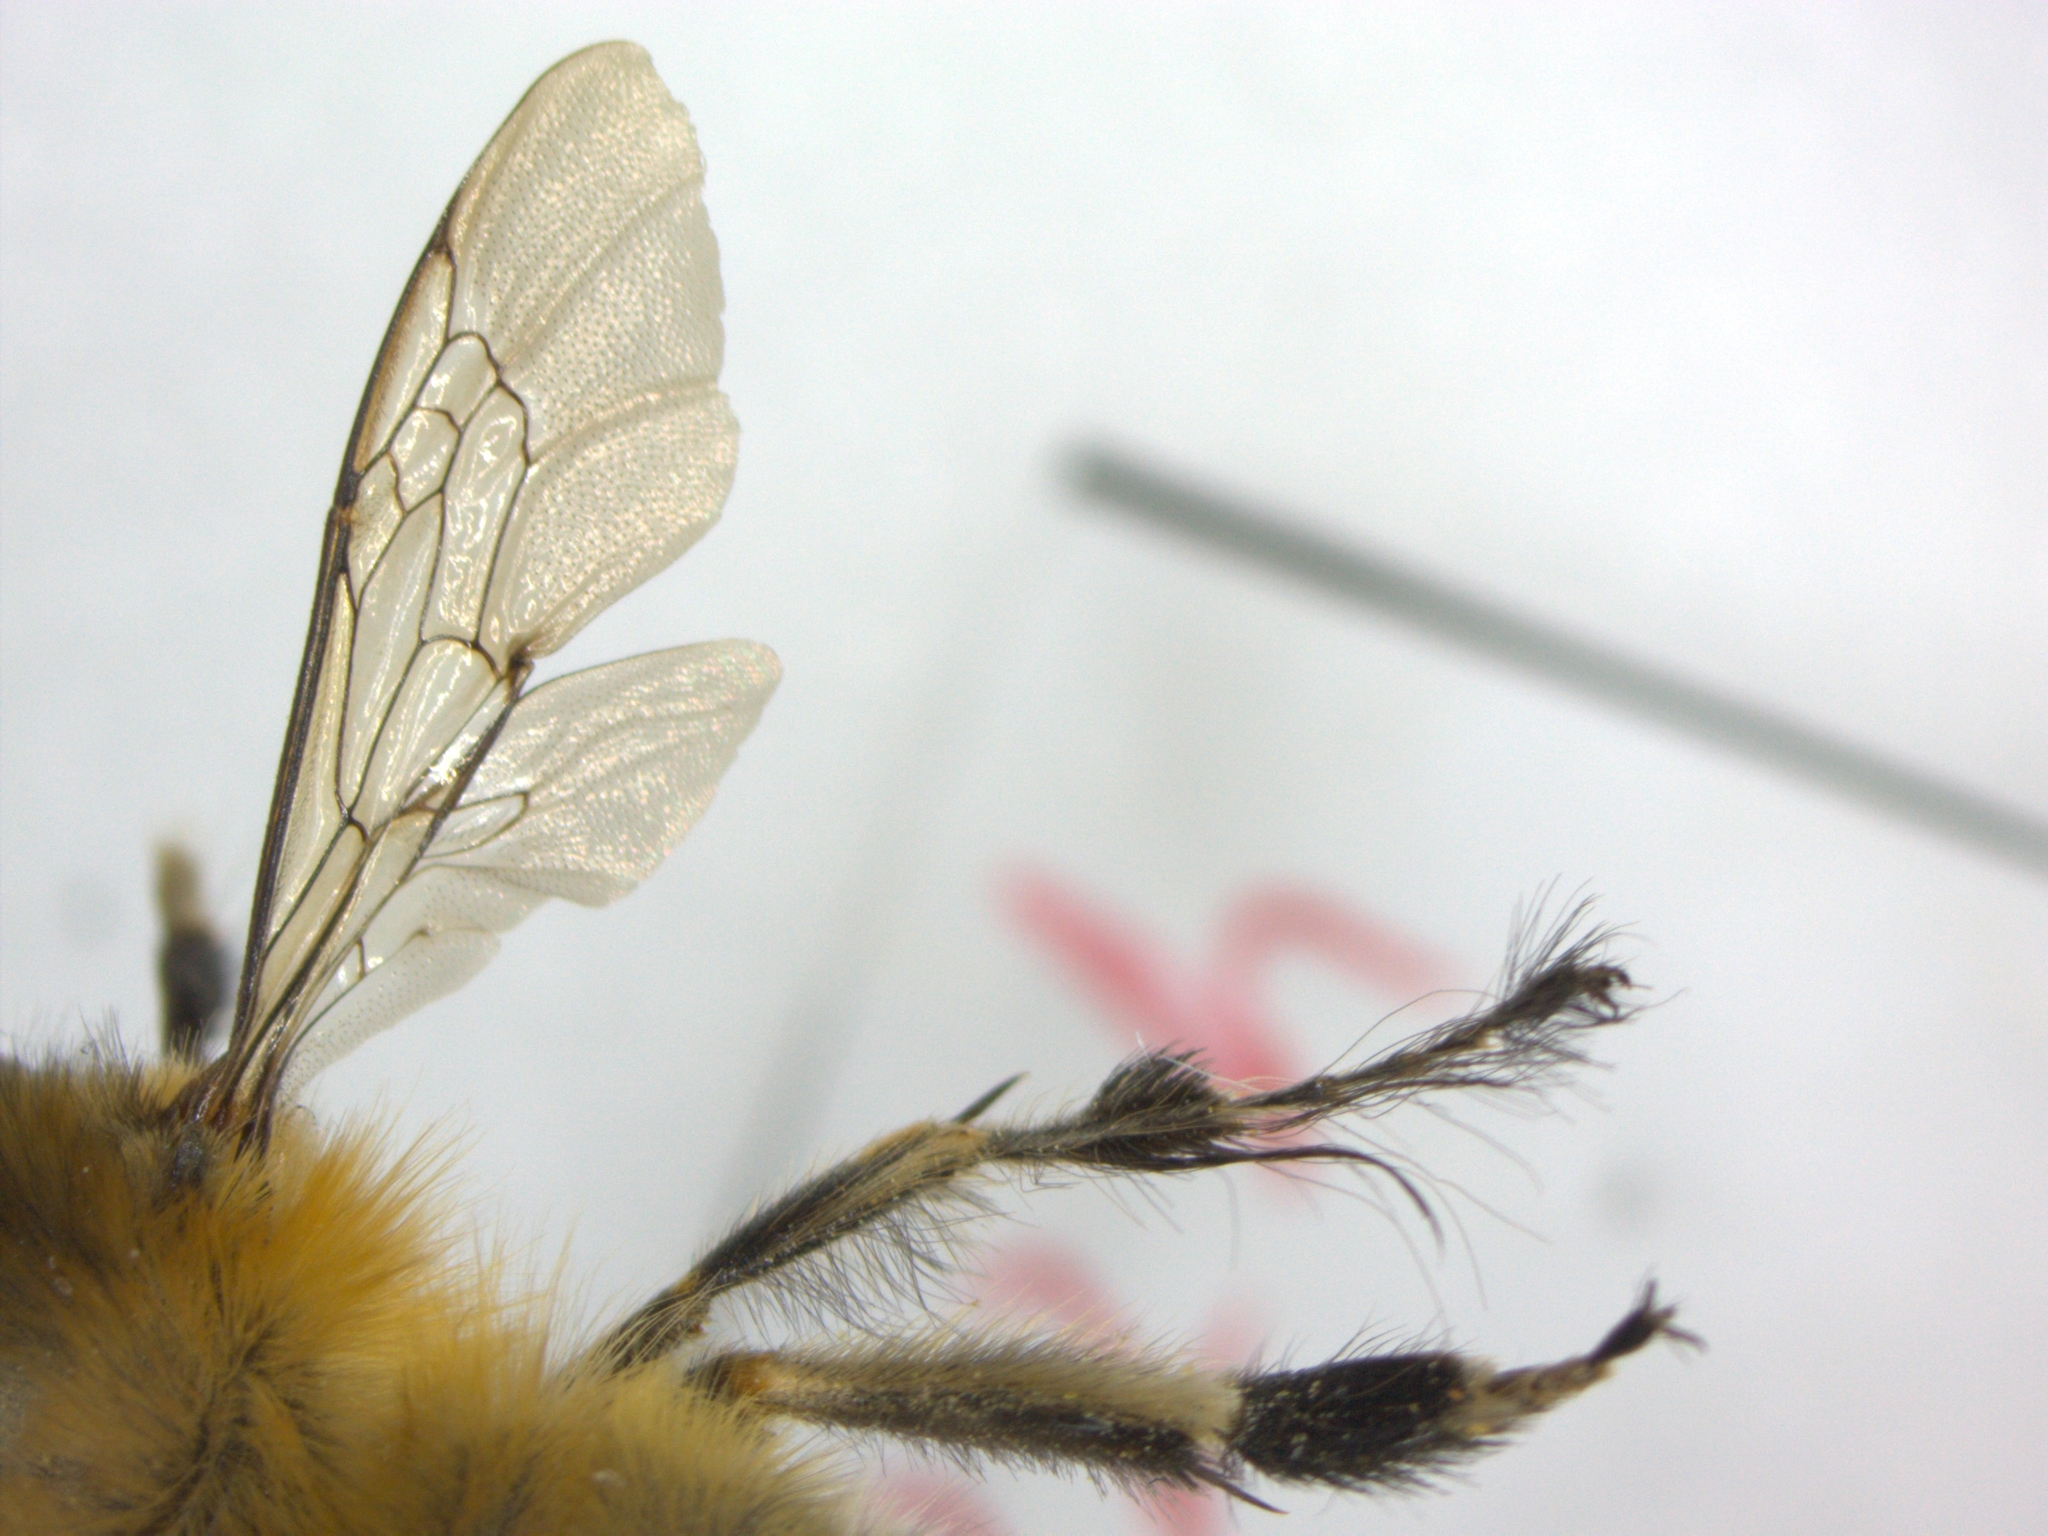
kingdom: Animalia
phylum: Arthropoda
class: Insecta
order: Hymenoptera
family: Apidae
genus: Anthophora
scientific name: Anthophora plumipes
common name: Hairy-footed flower bee
